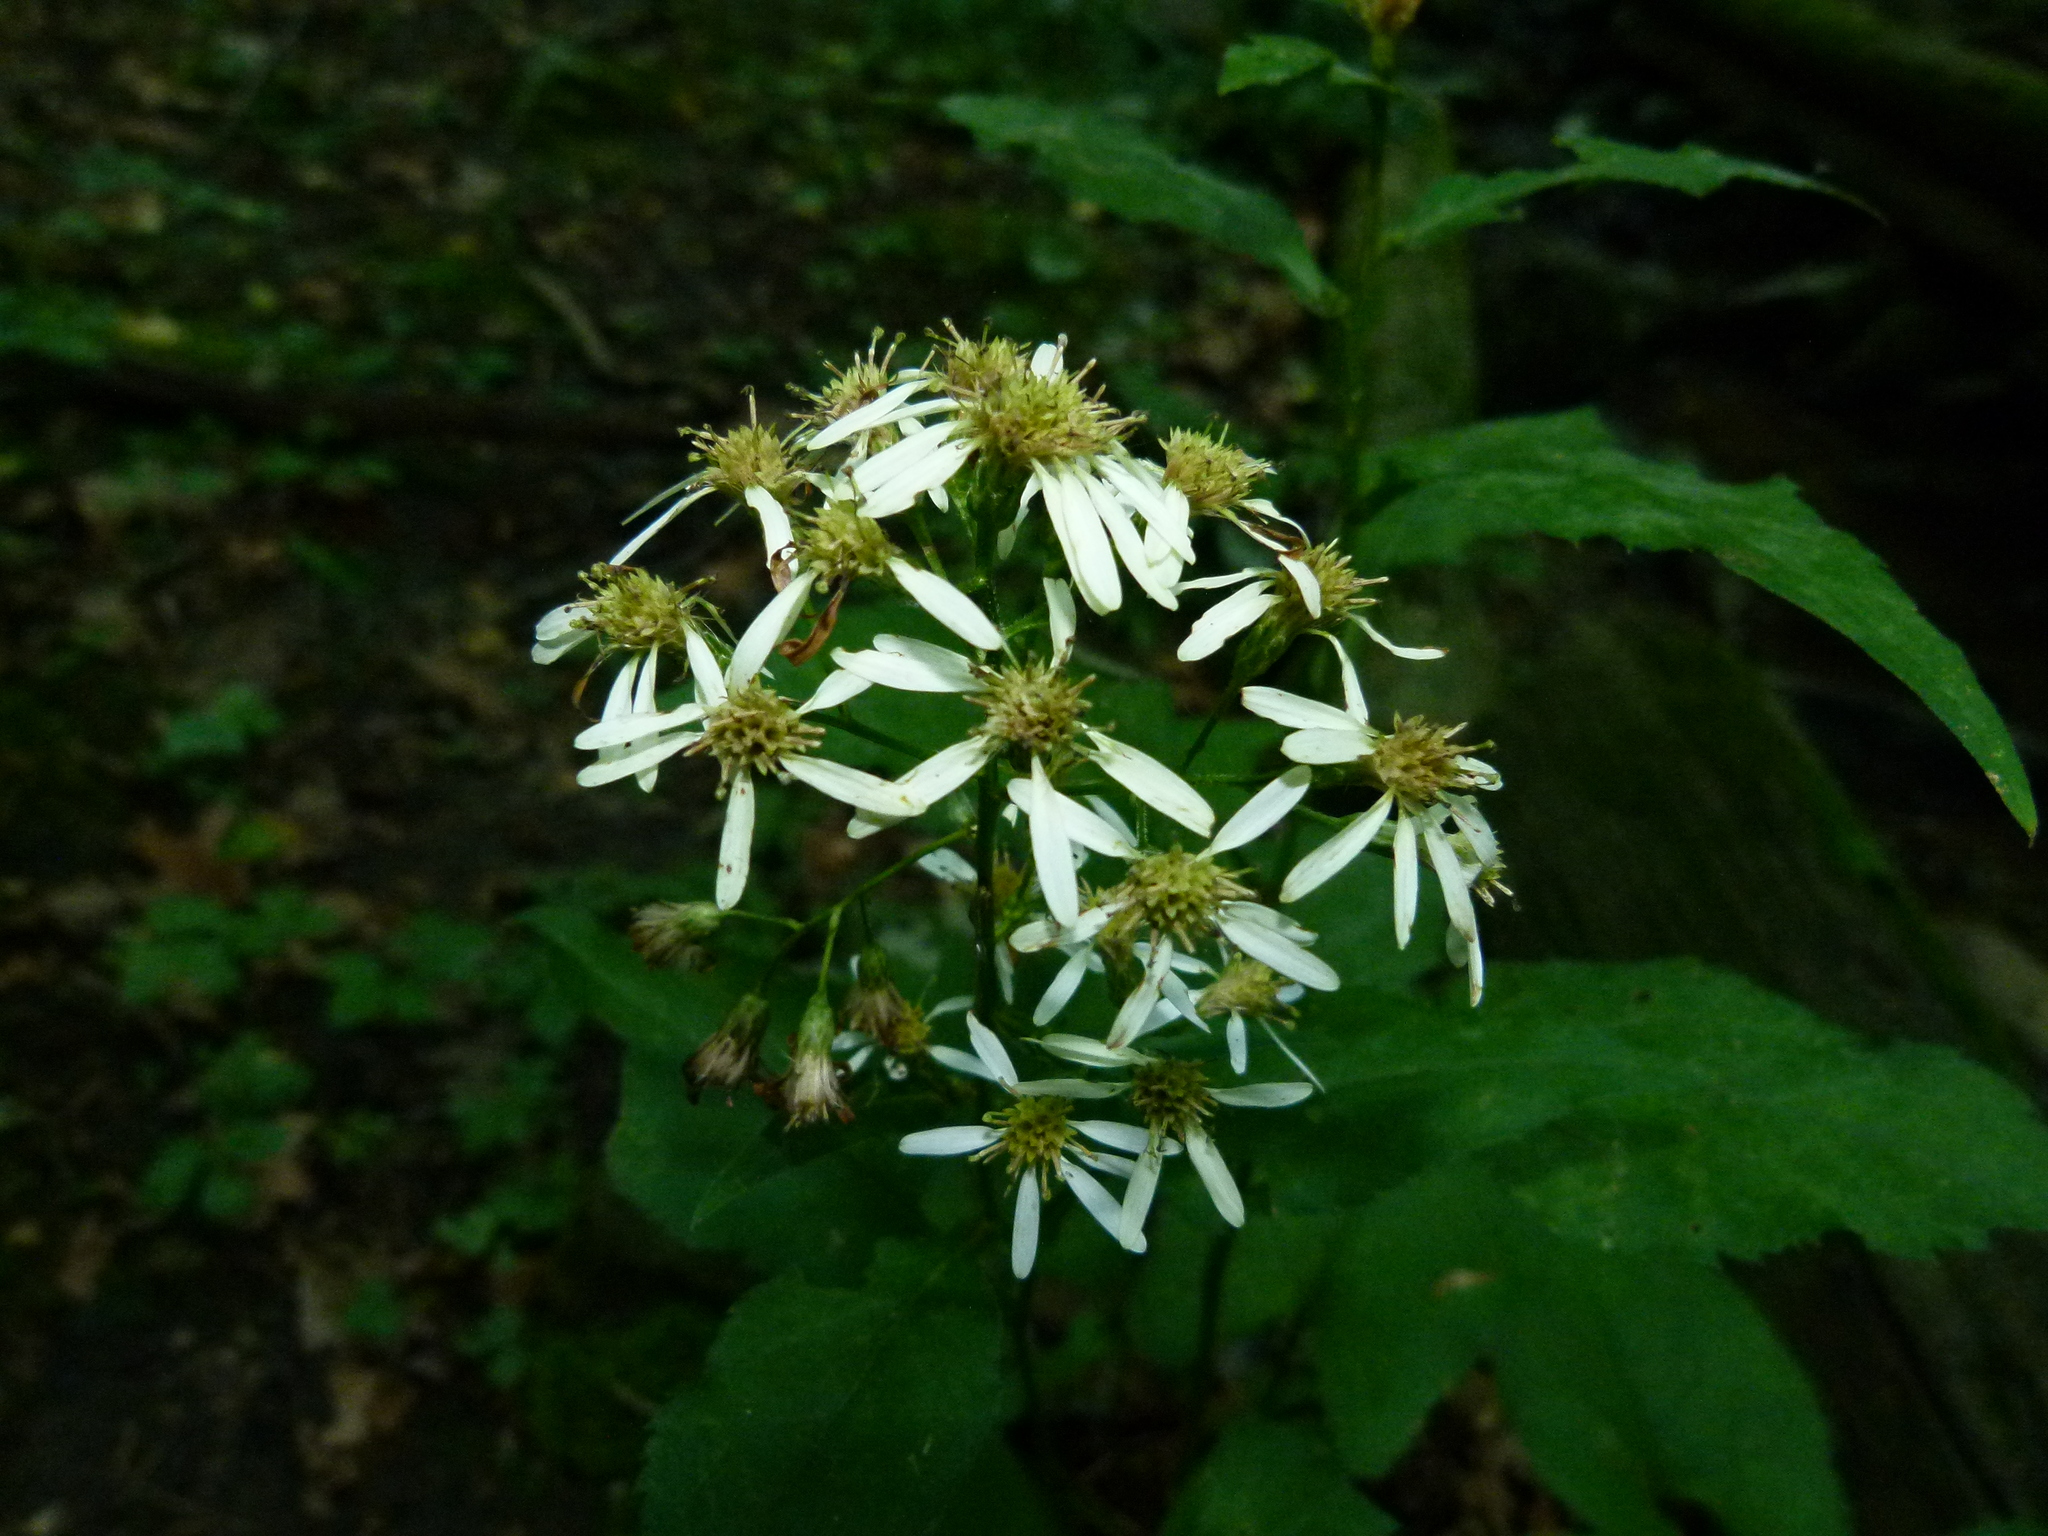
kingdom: Plantae
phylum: Tracheophyta
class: Magnoliopsida
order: Asterales
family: Asteraceae
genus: Symphyotrichum
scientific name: Symphyotrichum cordifolium
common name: Beeweed
